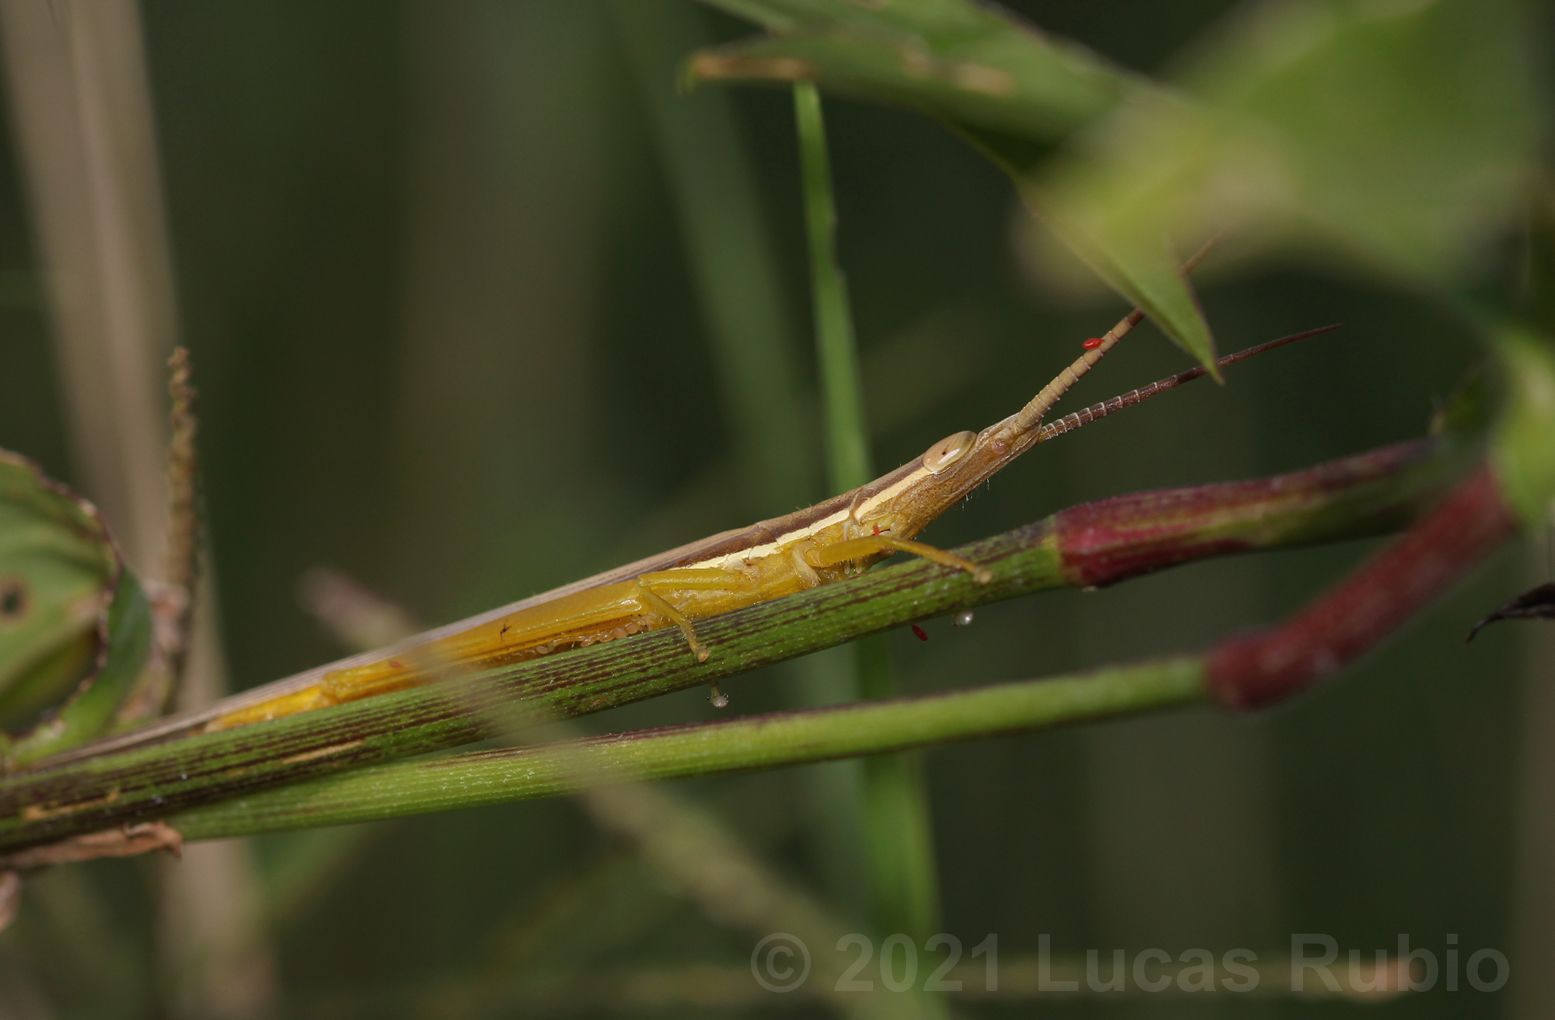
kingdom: Animalia
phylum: Arthropoda
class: Insecta
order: Orthoptera
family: Acrididae
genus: Cylindrotettix
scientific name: Cylindrotettix dorsalis
